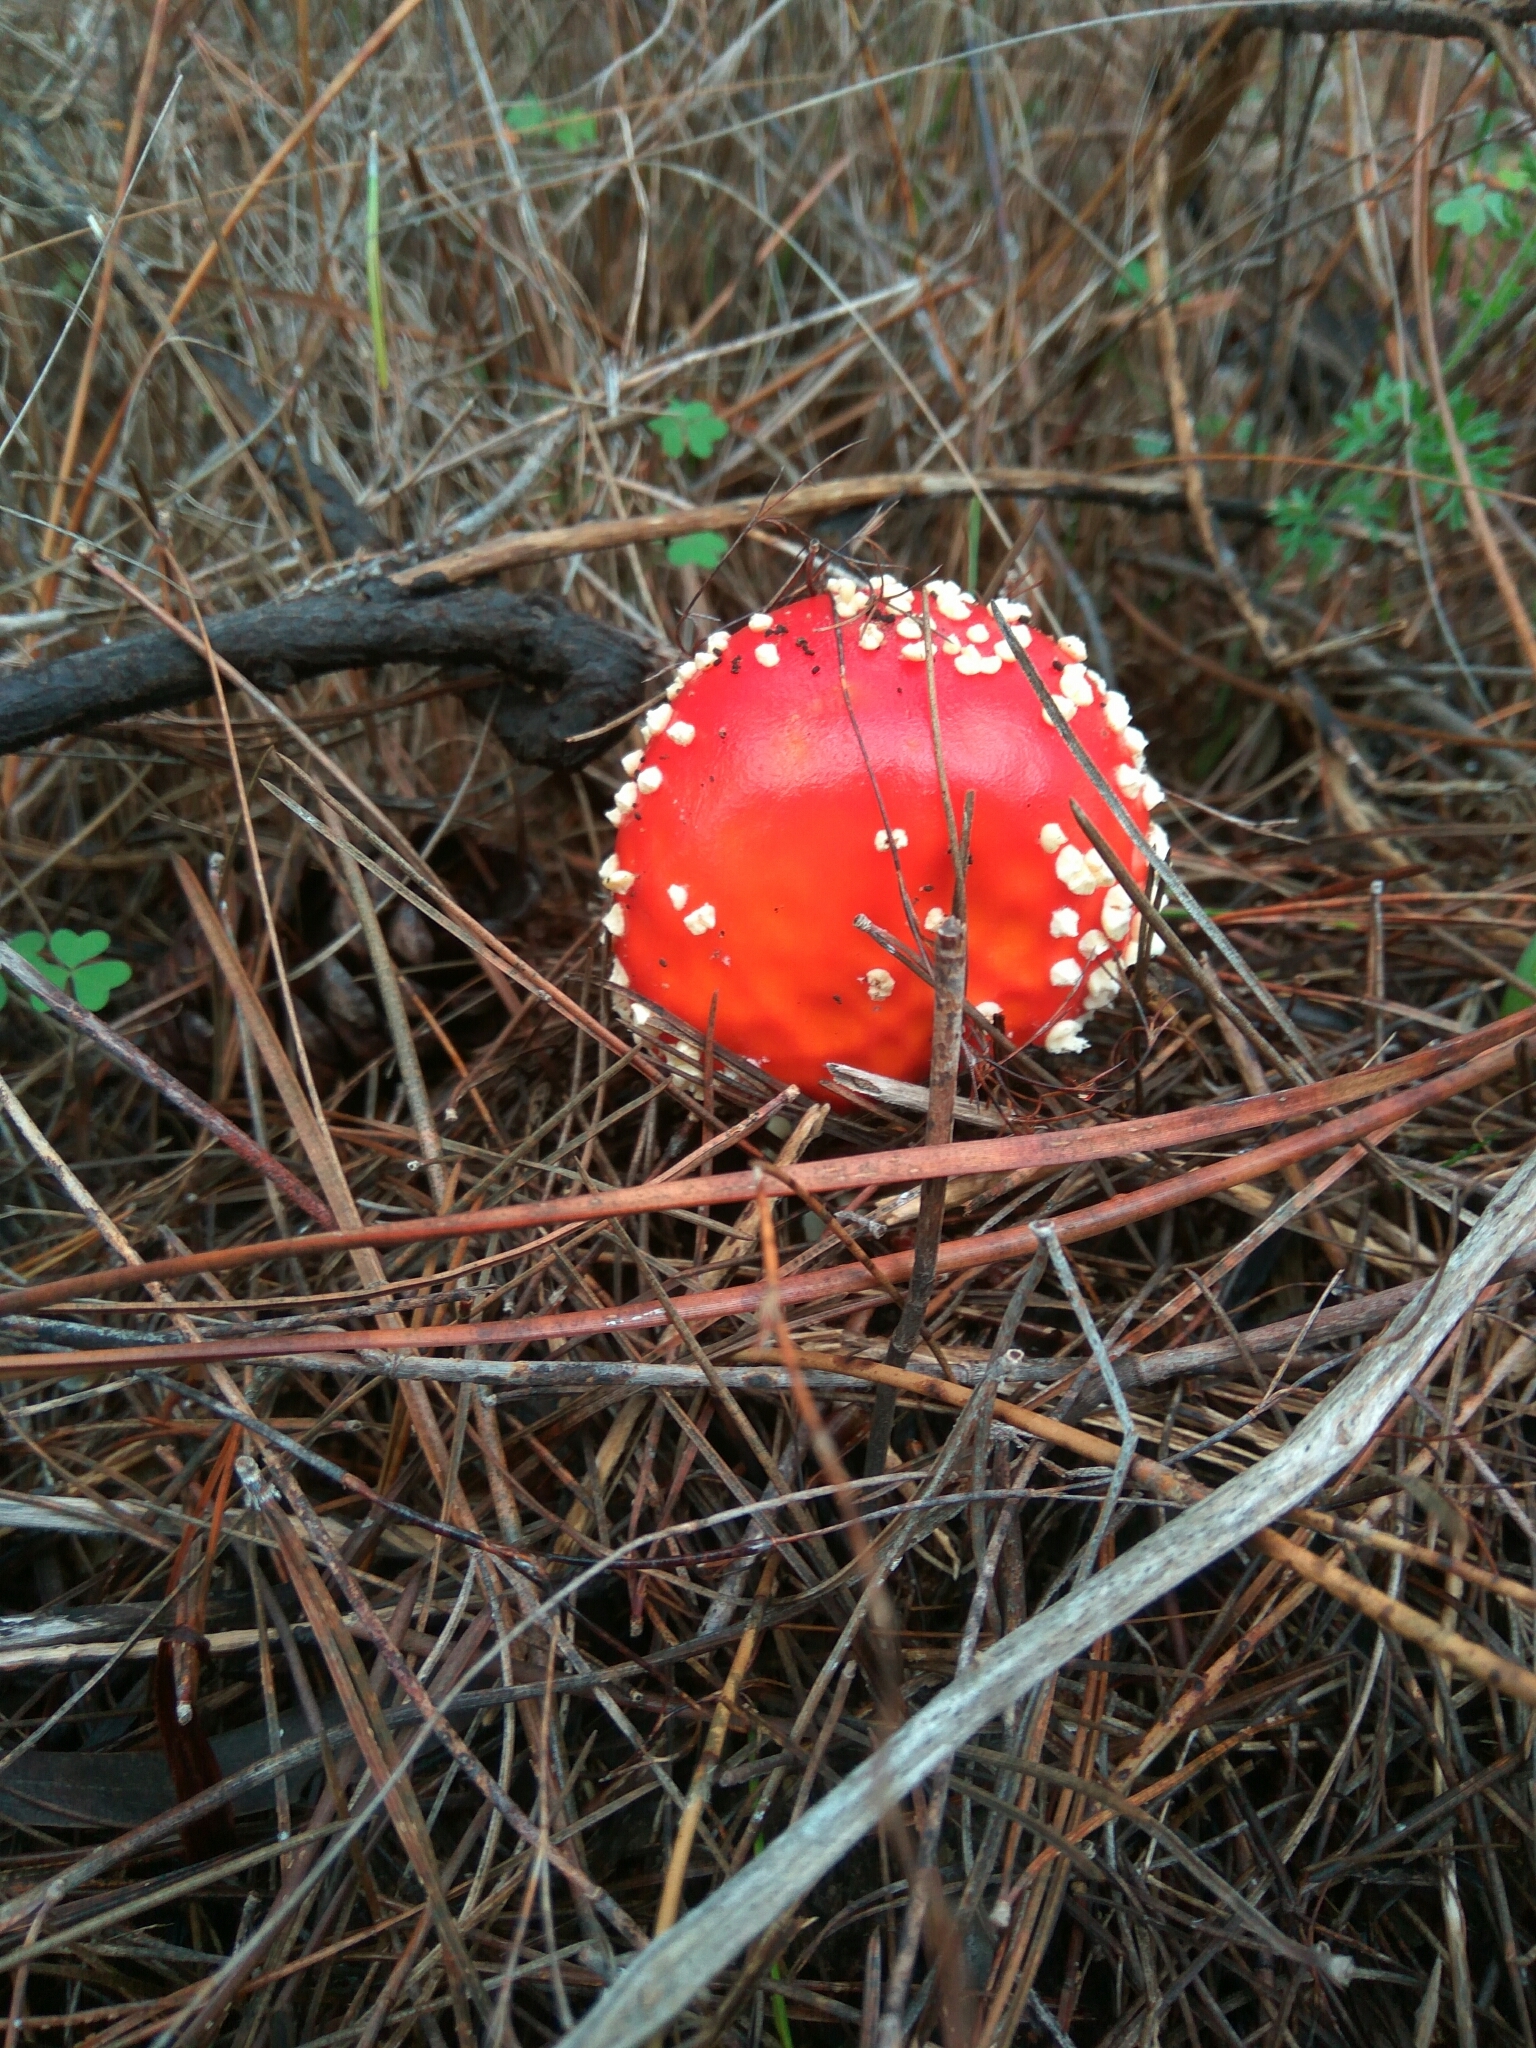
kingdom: Fungi
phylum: Basidiomycota
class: Agaricomycetes
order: Agaricales
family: Amanitaceae
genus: Amanita
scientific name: Amanita muscaria
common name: Fly agaric
